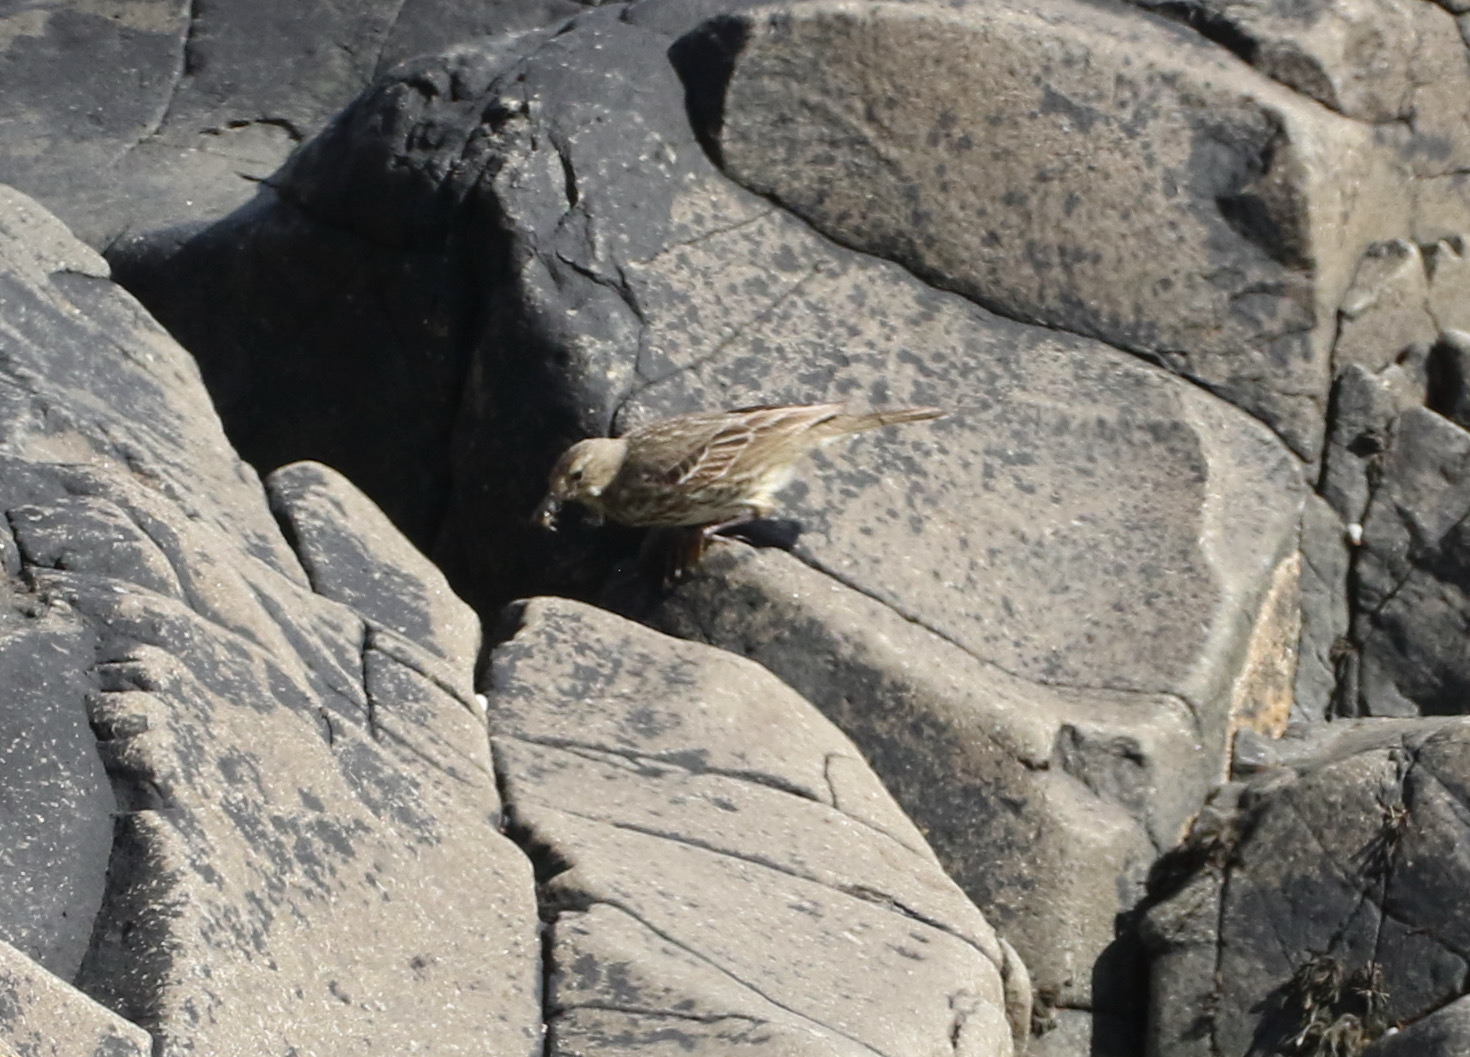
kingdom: Animalia
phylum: Chordata
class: Aves
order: Passeriformes
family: Motacillidae
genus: Anthus
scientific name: Anthus petrosus
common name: Eurasian rock pipit
